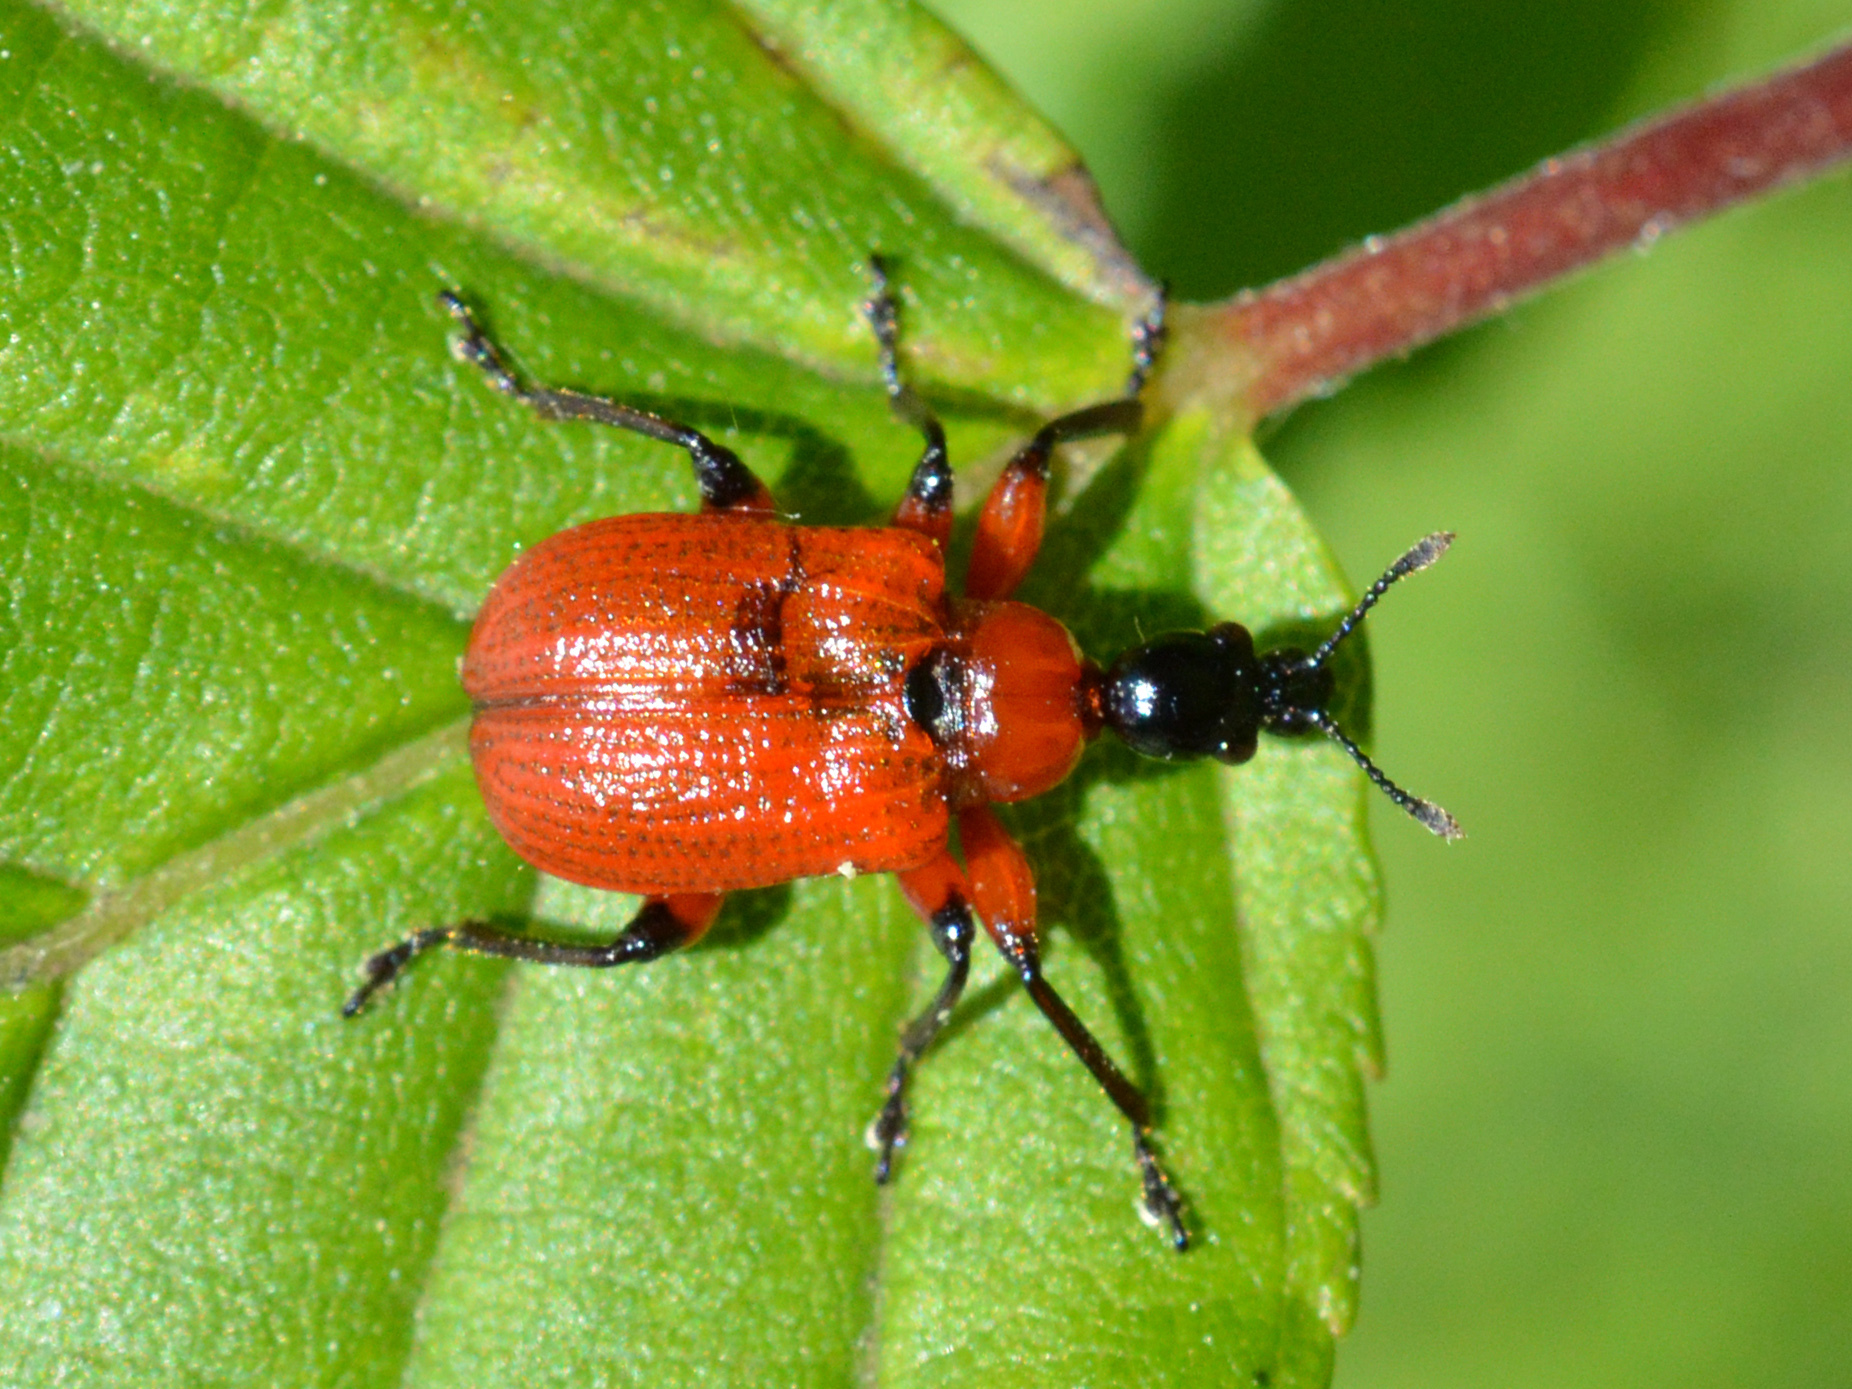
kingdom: Animalia
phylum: Arthropoda
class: Insecta
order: Coleoptera
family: Attelabidae
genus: Apoderus
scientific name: Apoderus coryli
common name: Hazel leaf roller
